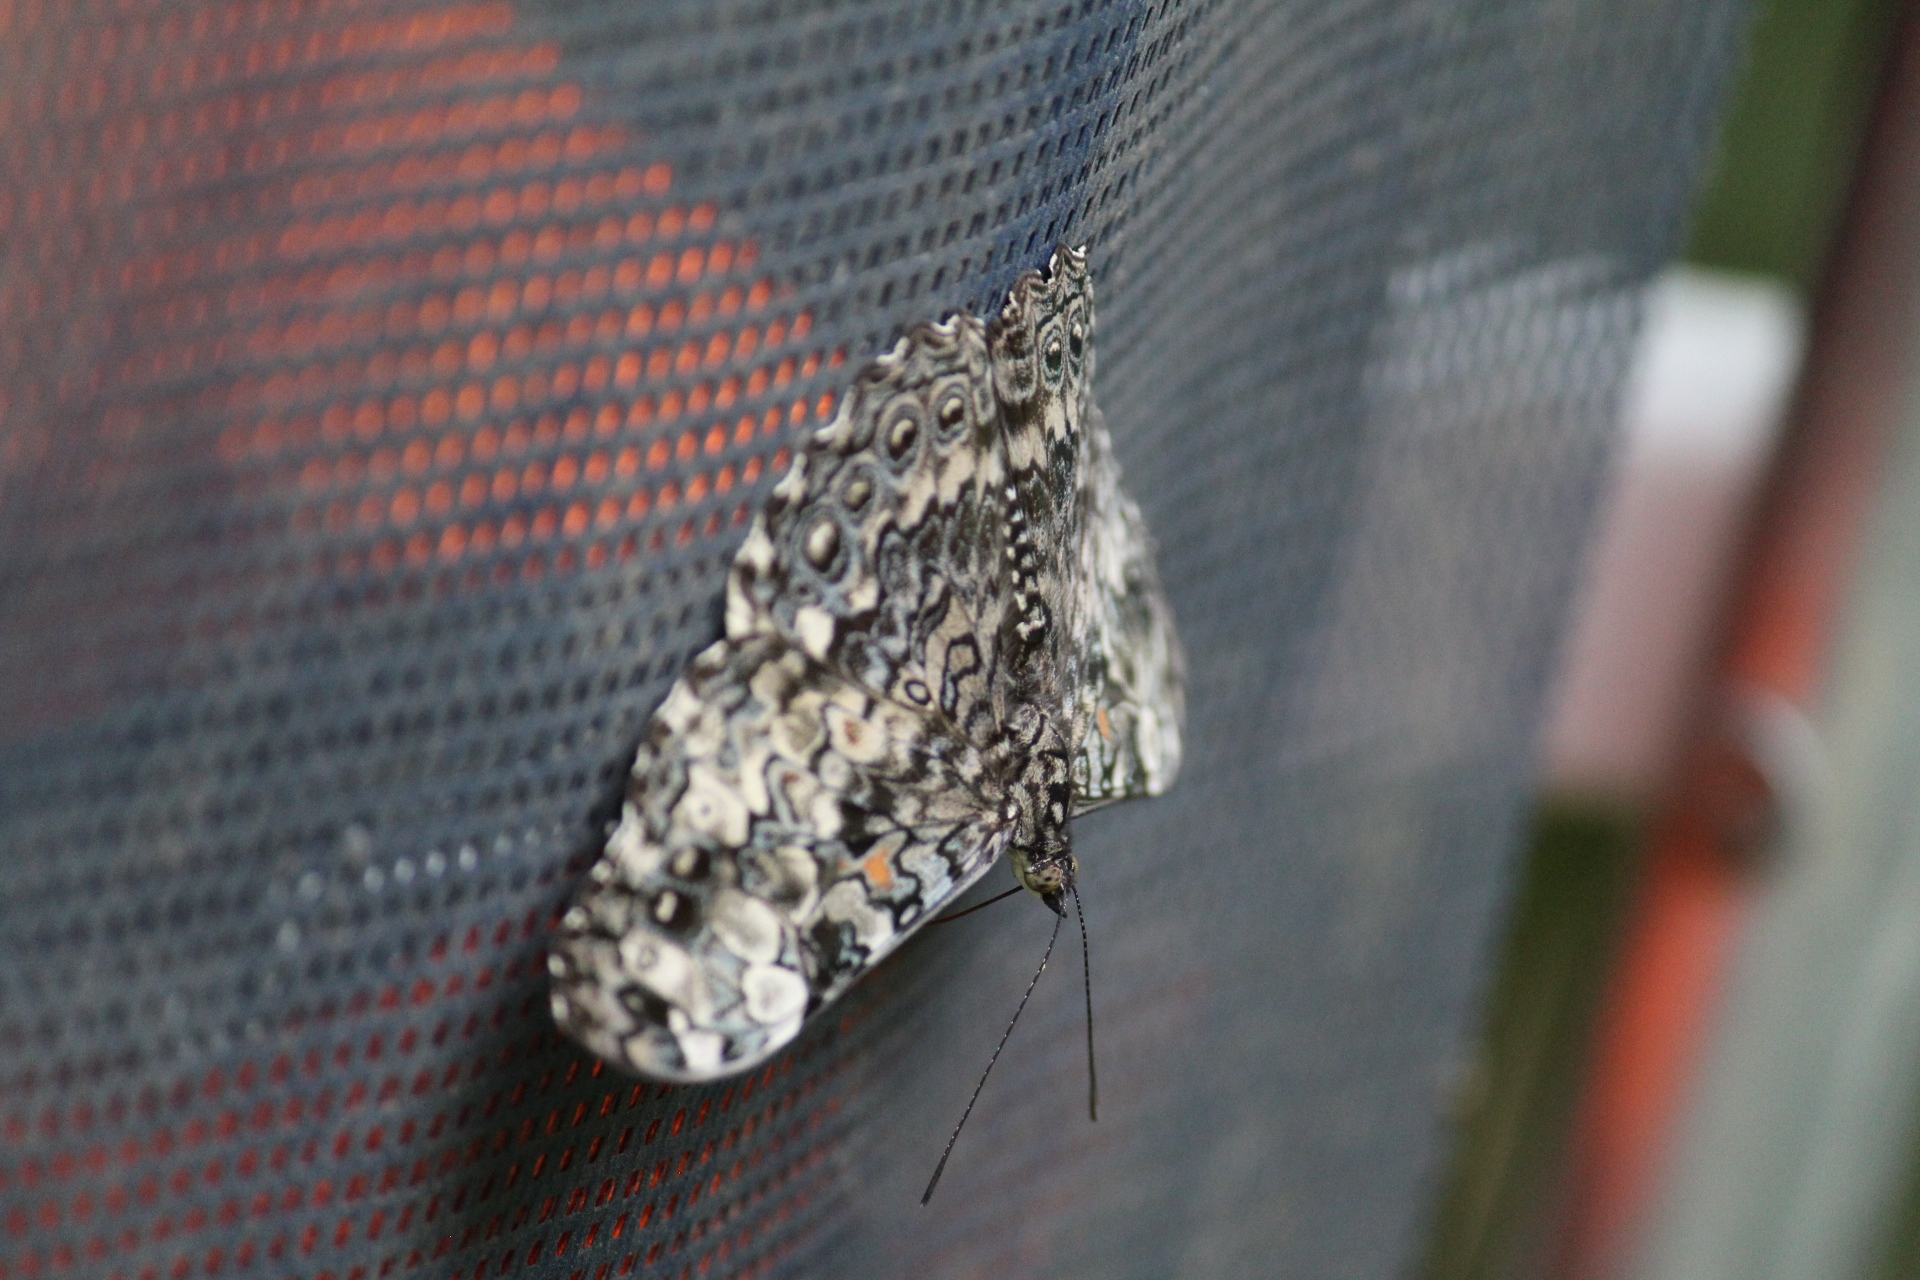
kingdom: Animalia
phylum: Arthropoda
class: Insecta
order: Lepidoptera
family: Nymphalidae
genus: Hamadryas
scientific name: Hamadryas epinome
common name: Epinome cracker
